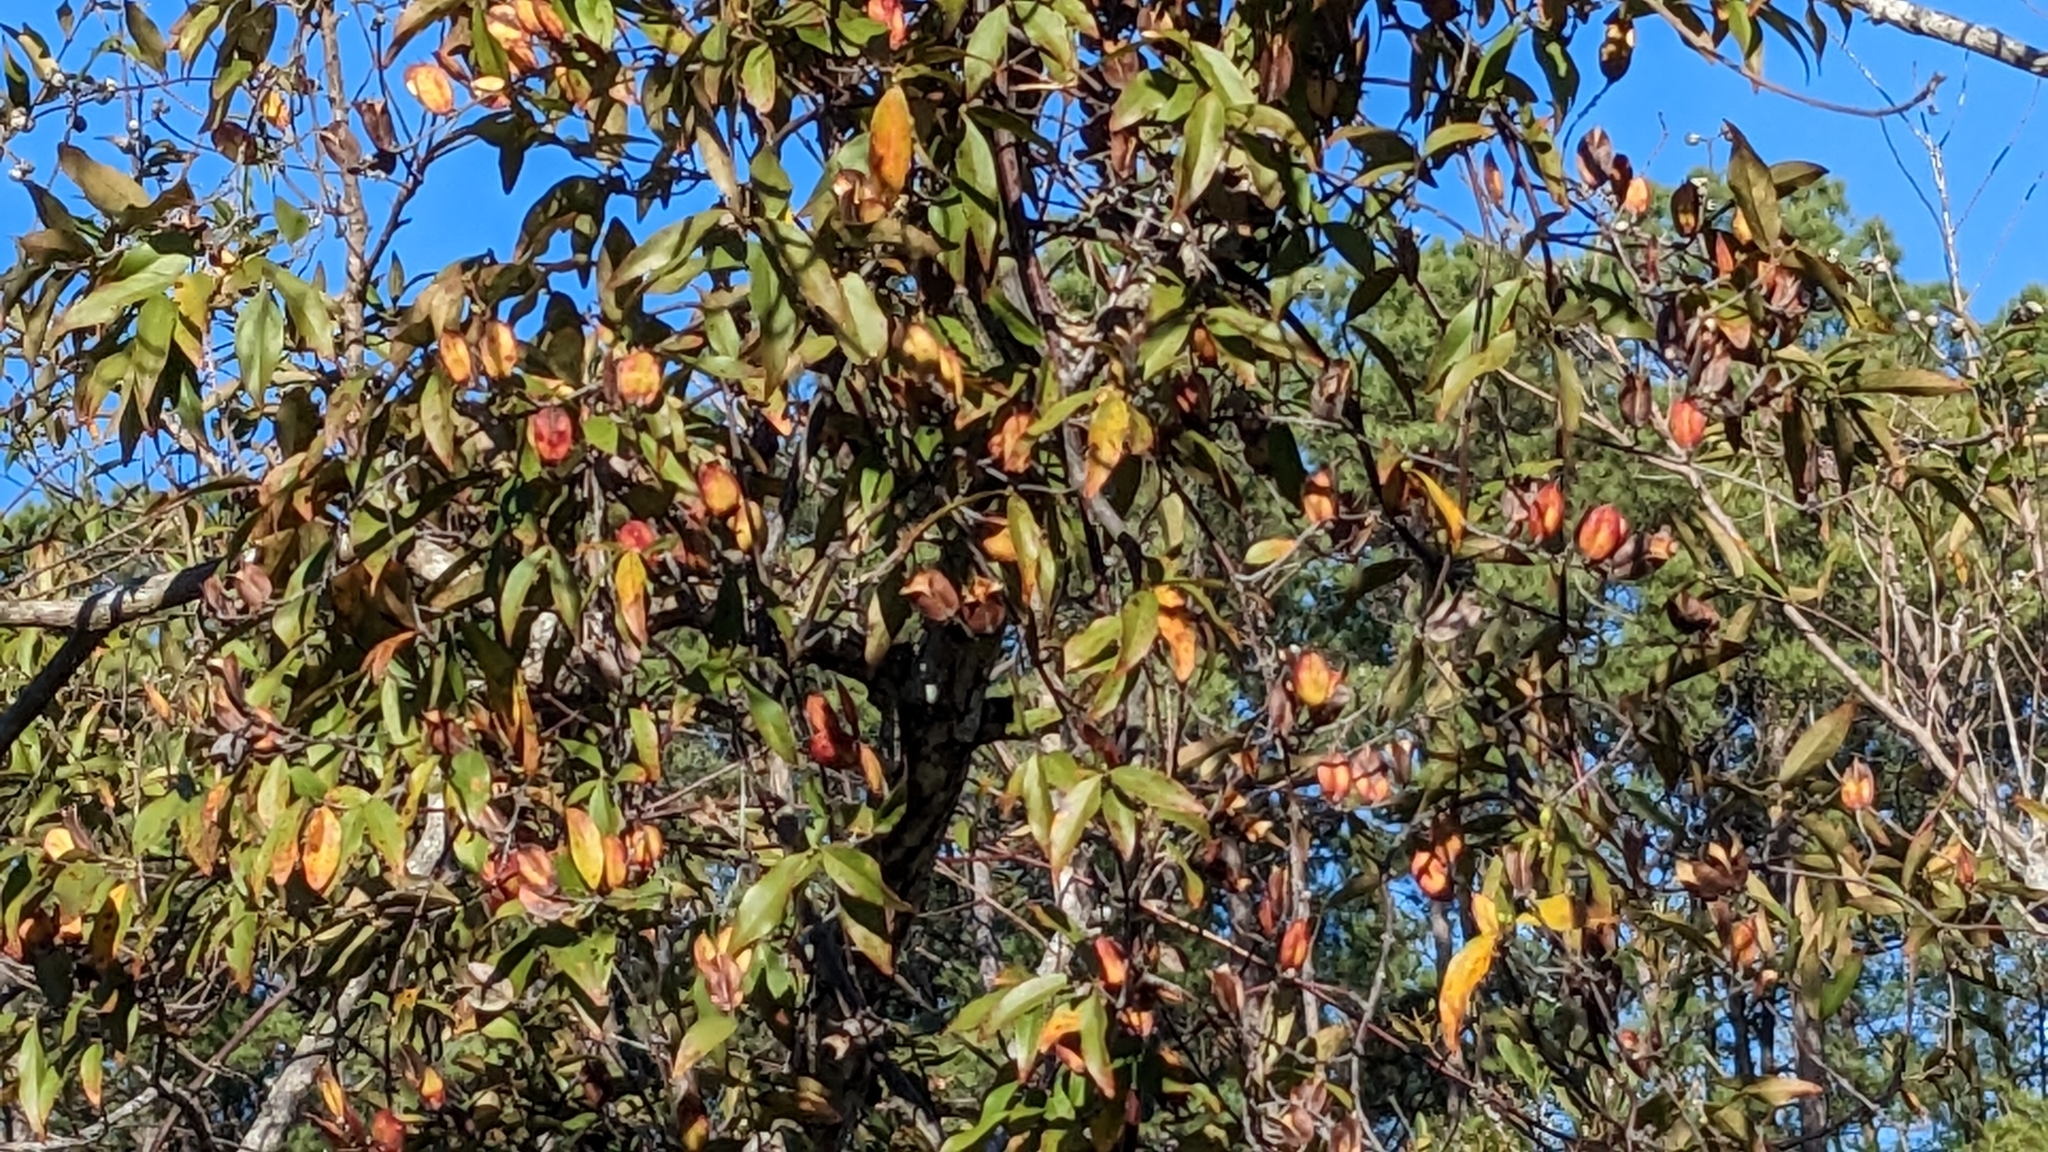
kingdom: Plantae
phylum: Tracheophyta
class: Magnoliopsida
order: Gentianales
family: Gelsemiaceae
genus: Gelsemium
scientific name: Gelsemium sempervirens
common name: Carolina-jasmine
